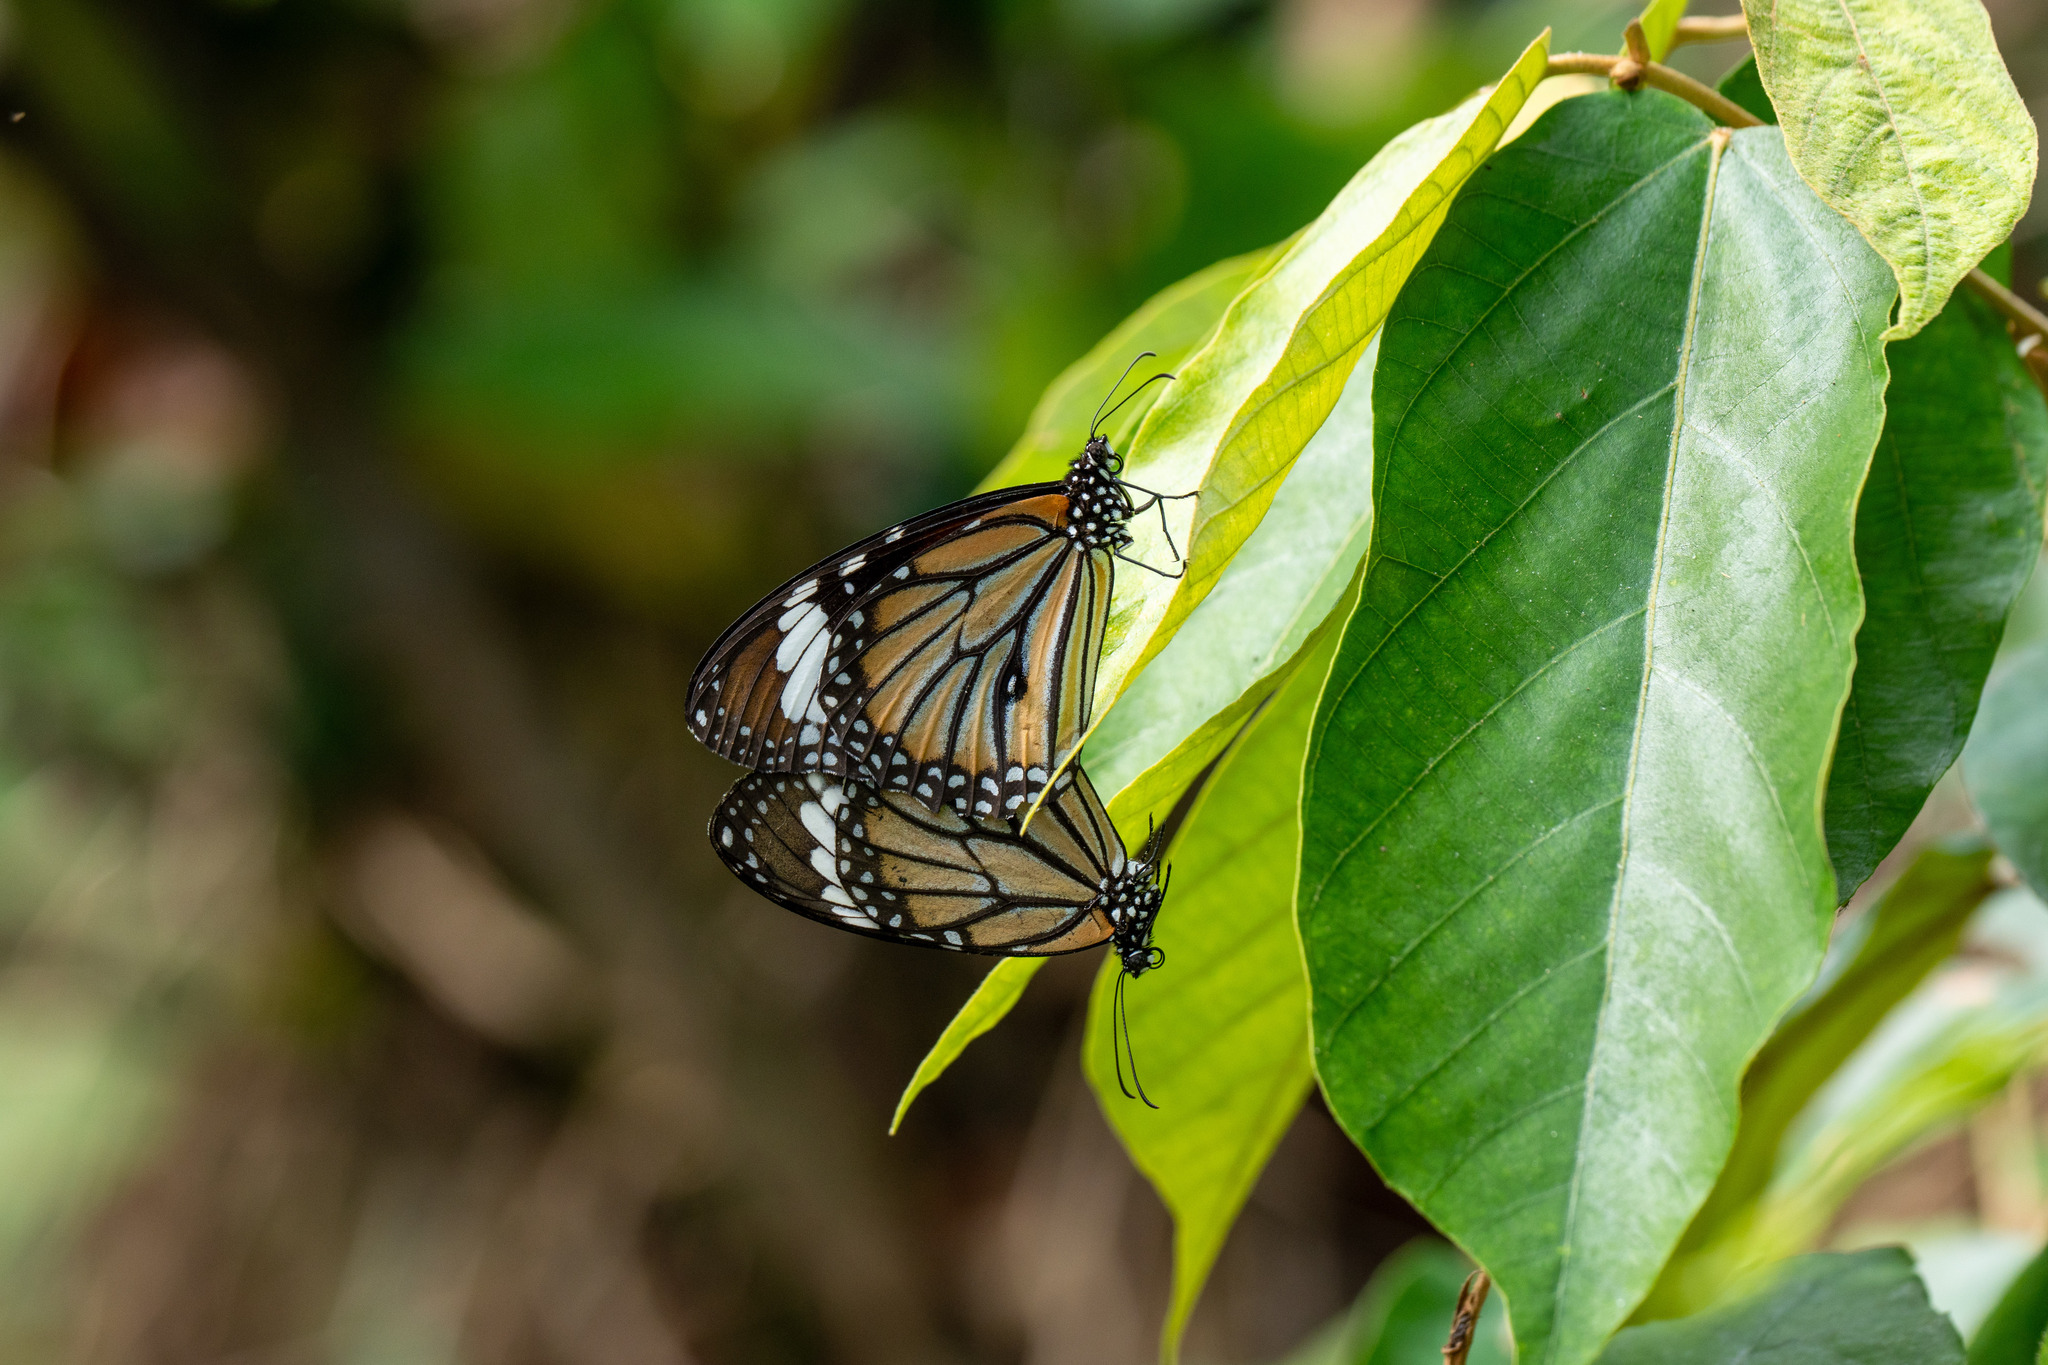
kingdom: Animalia
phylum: Arthropoda
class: Insecta
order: Lepidoptera
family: Nymphalidae
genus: Danaus
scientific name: Danaus genutia
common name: Common tiger butterfly
